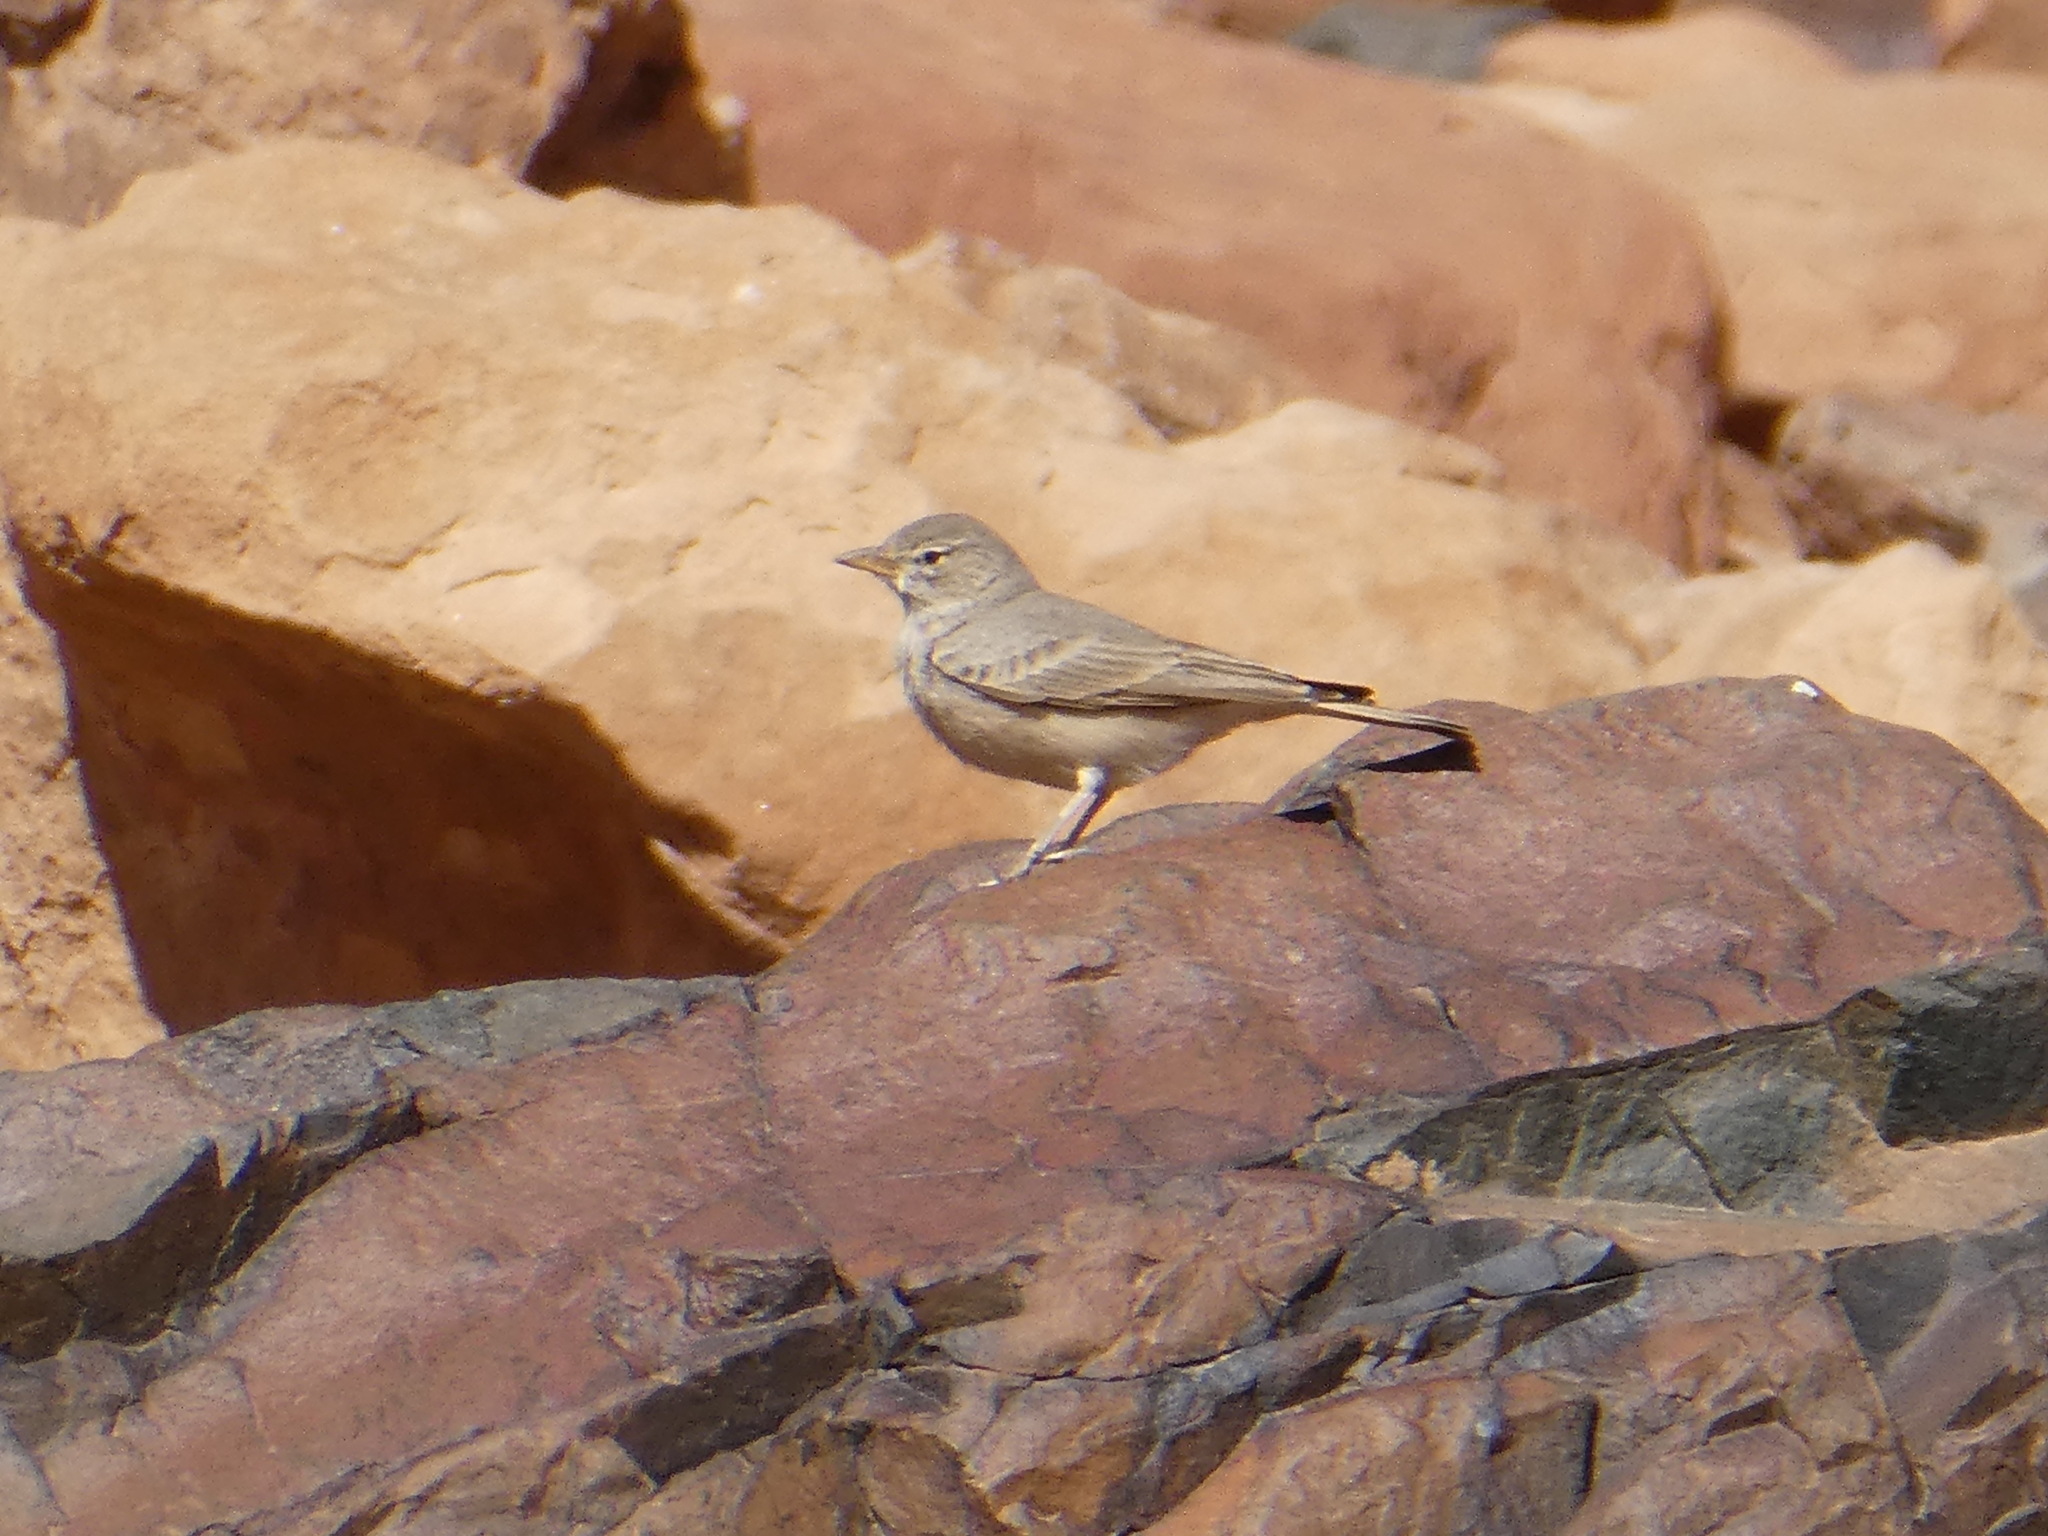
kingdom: Animalia
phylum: Chordata
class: Aves
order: Passeriformes
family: Alaudidae
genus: Ammomanes
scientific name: Ammomanes deserti
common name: Desert lark
